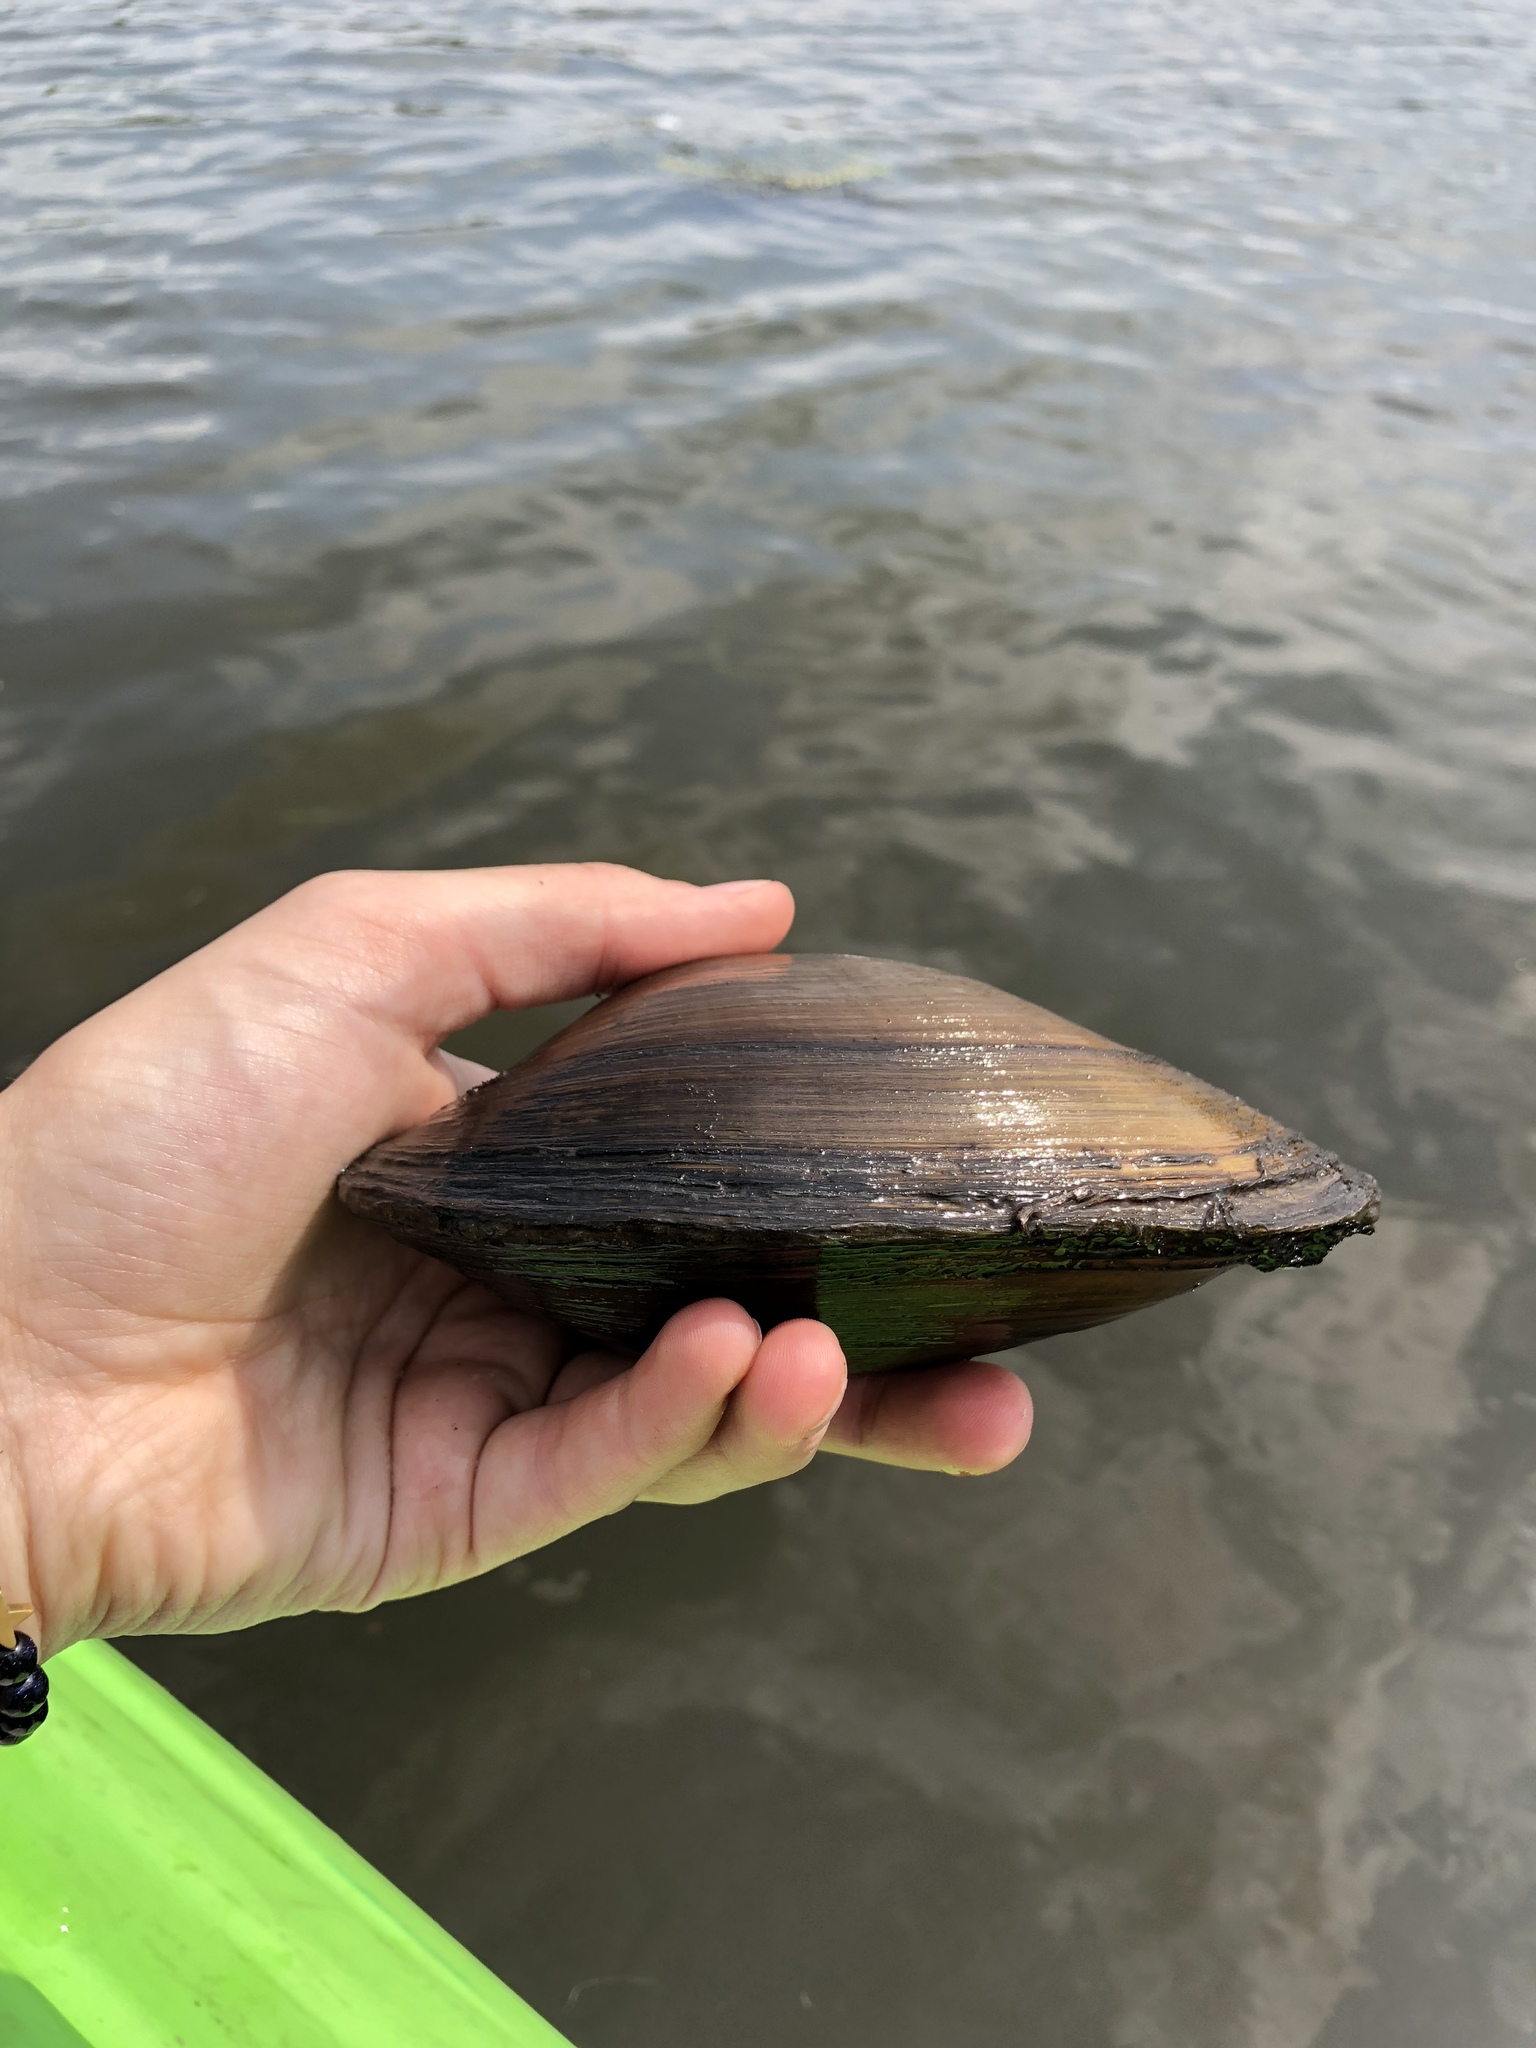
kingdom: Animalia
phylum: Mollusca
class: Bivalvia
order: Unionida
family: Unionidae
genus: Pyganodon
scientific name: Pyganodon grandis
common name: Giant floater
